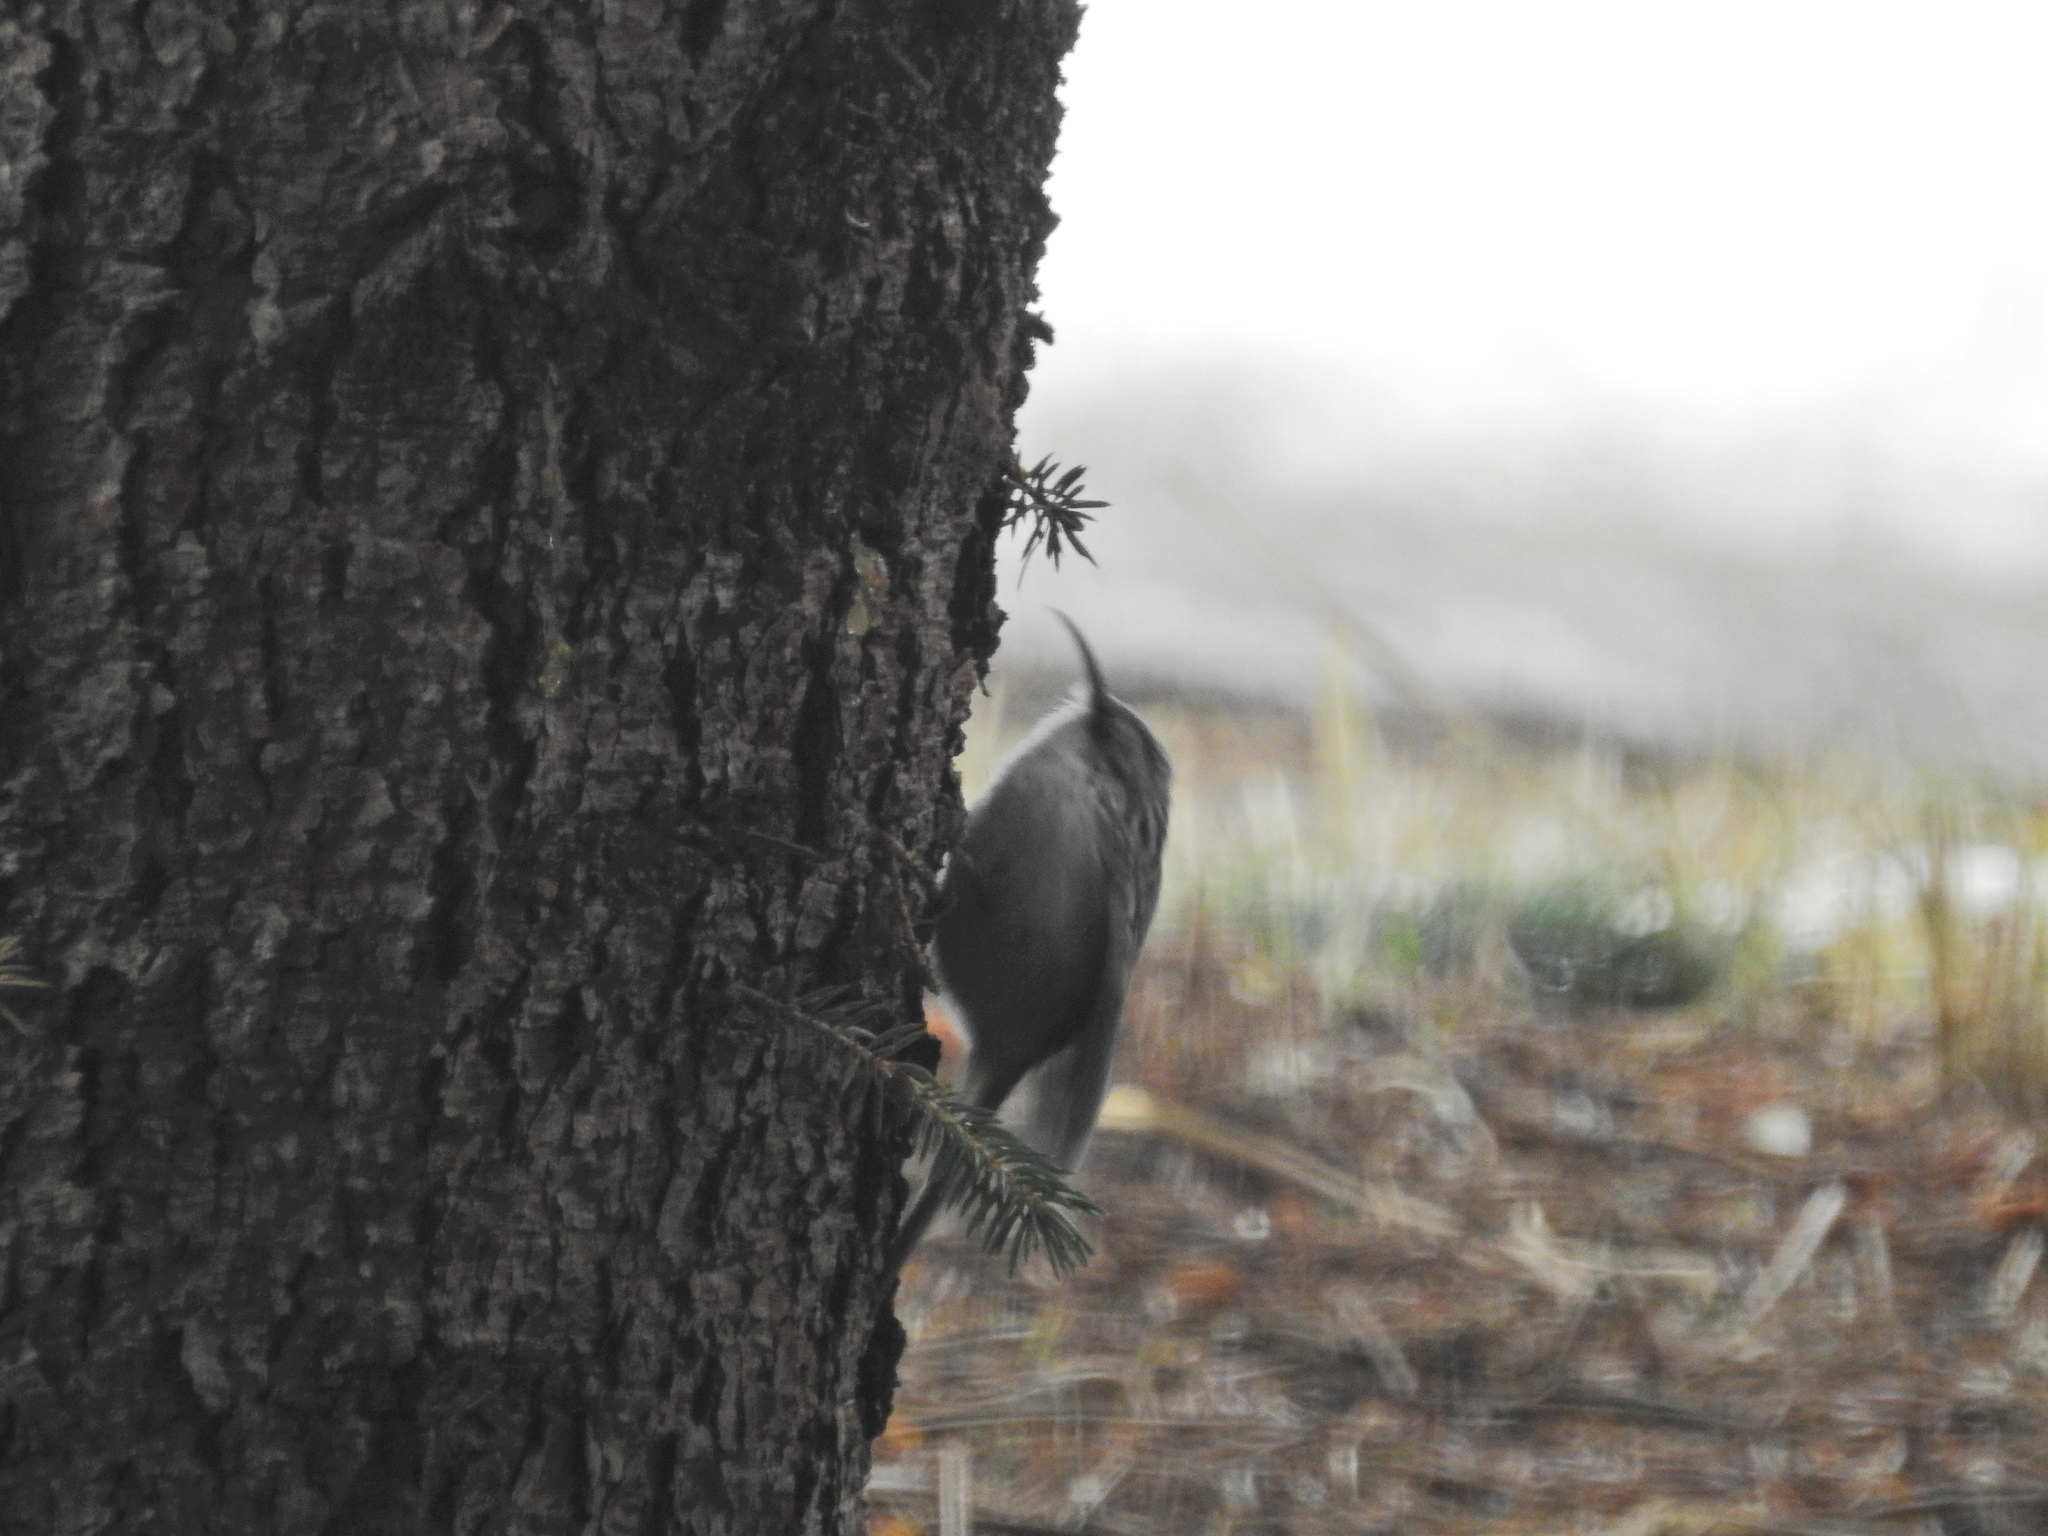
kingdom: Animalia
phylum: Chordata
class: Aves
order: Passeriformes
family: Certhiidae
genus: Certhia
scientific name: Certhia americana
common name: Brown creeper
